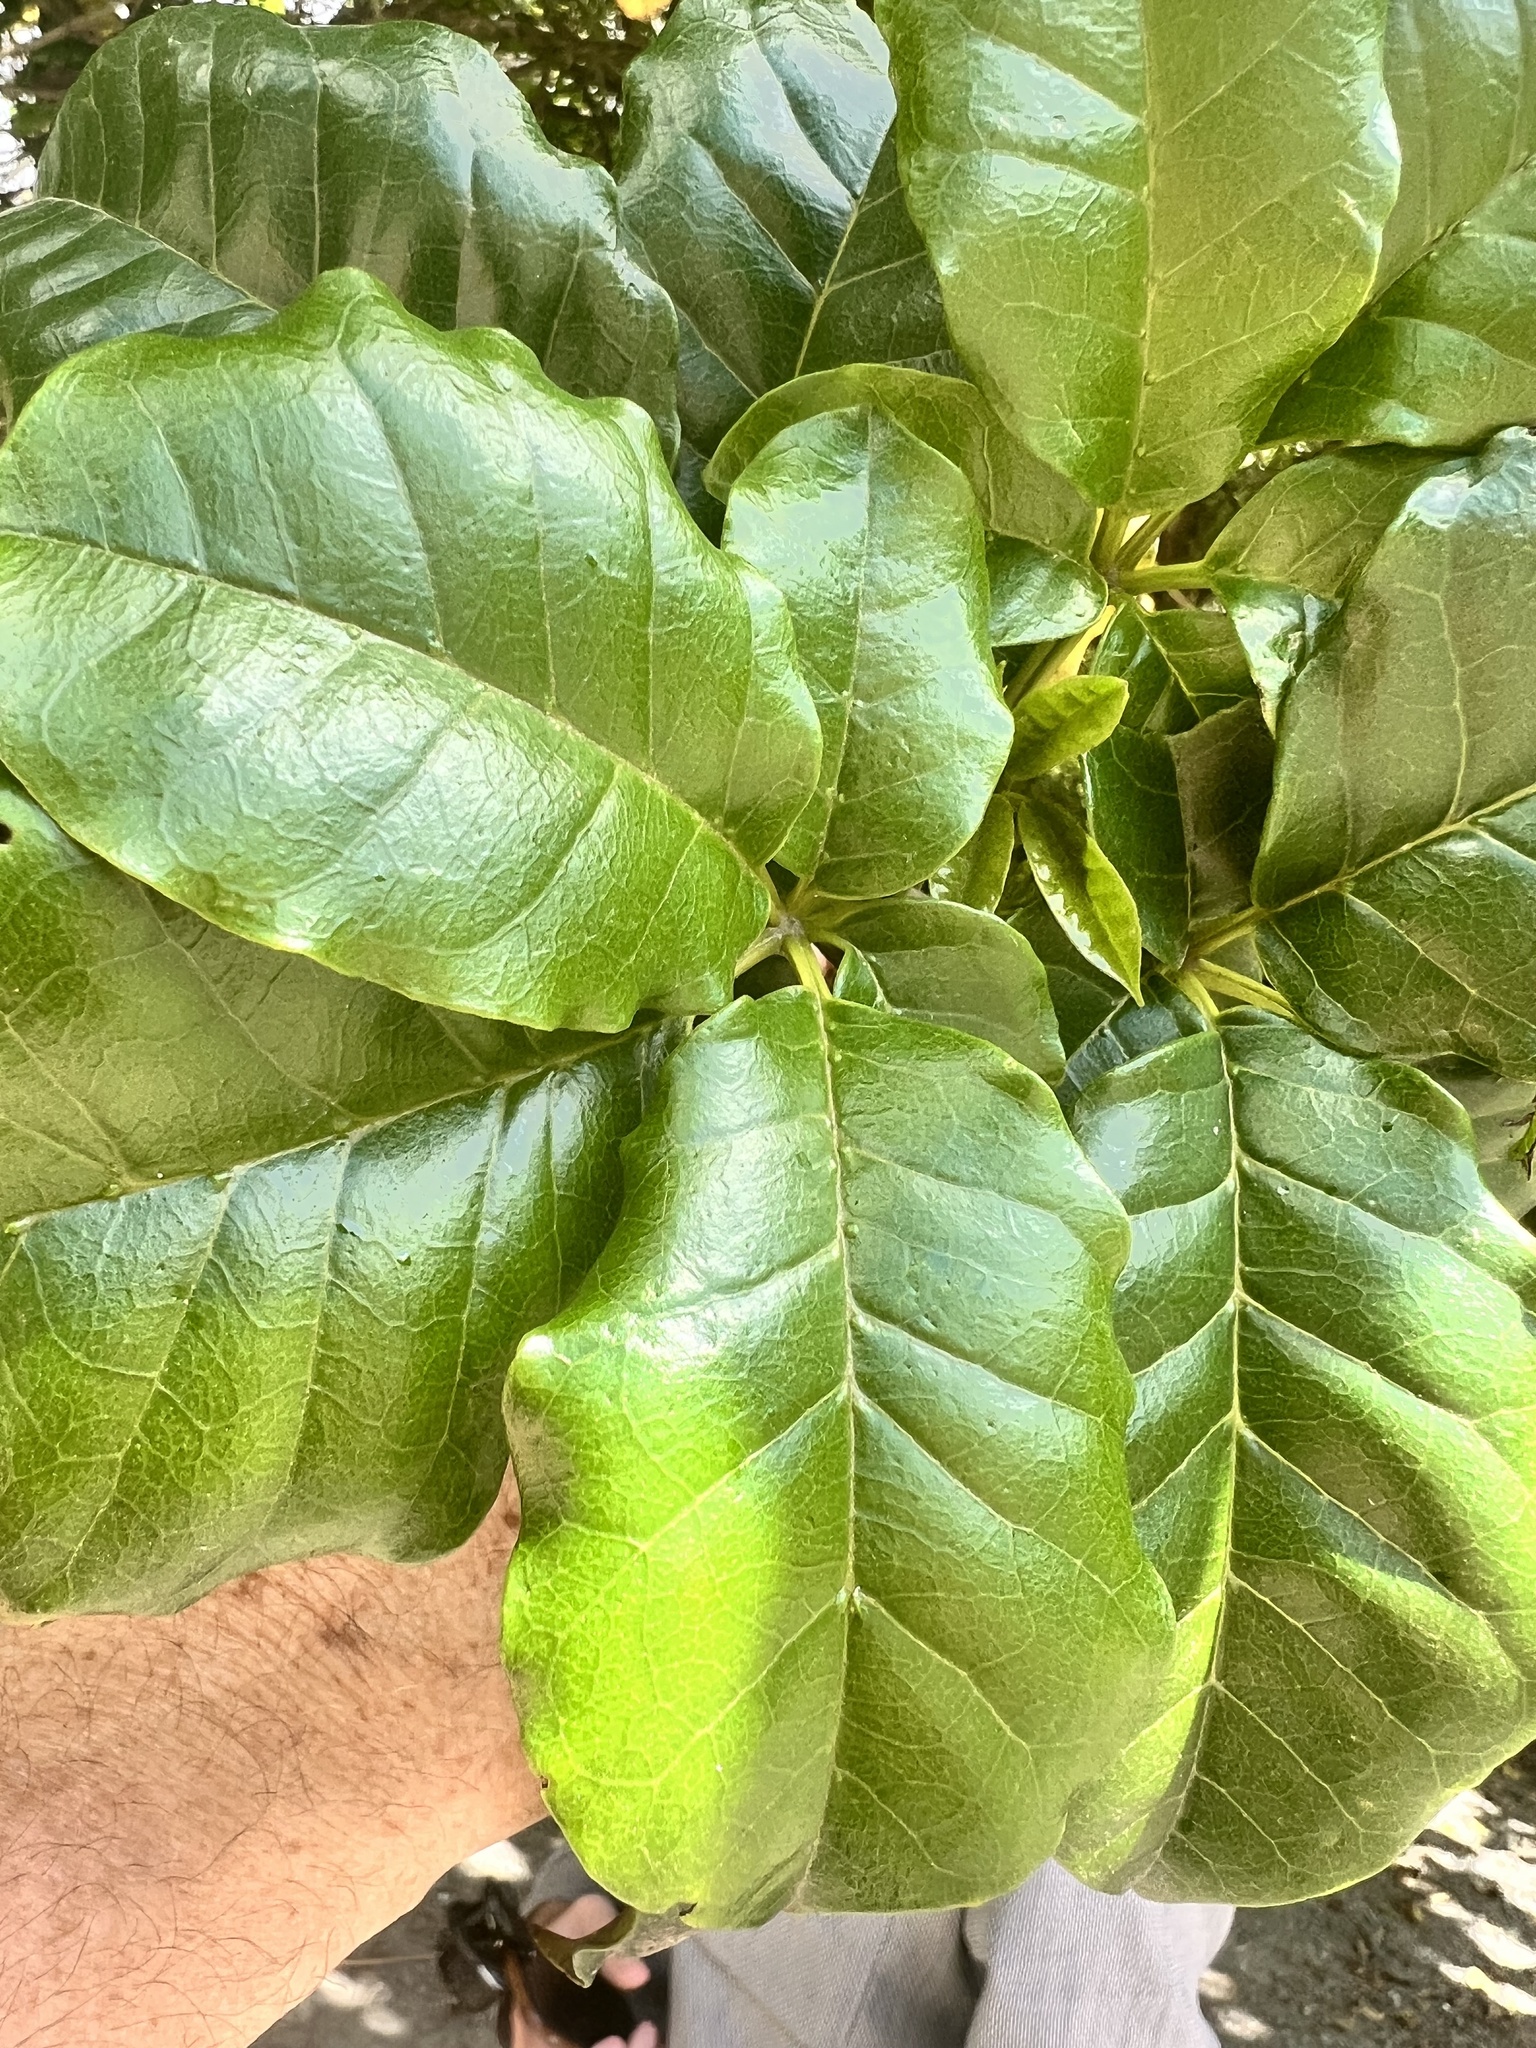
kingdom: Plantae
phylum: Tracheophyta
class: Magnoliopsida
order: Lamiales
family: Lamiaceae
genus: Vitex
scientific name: Vitex lucens
